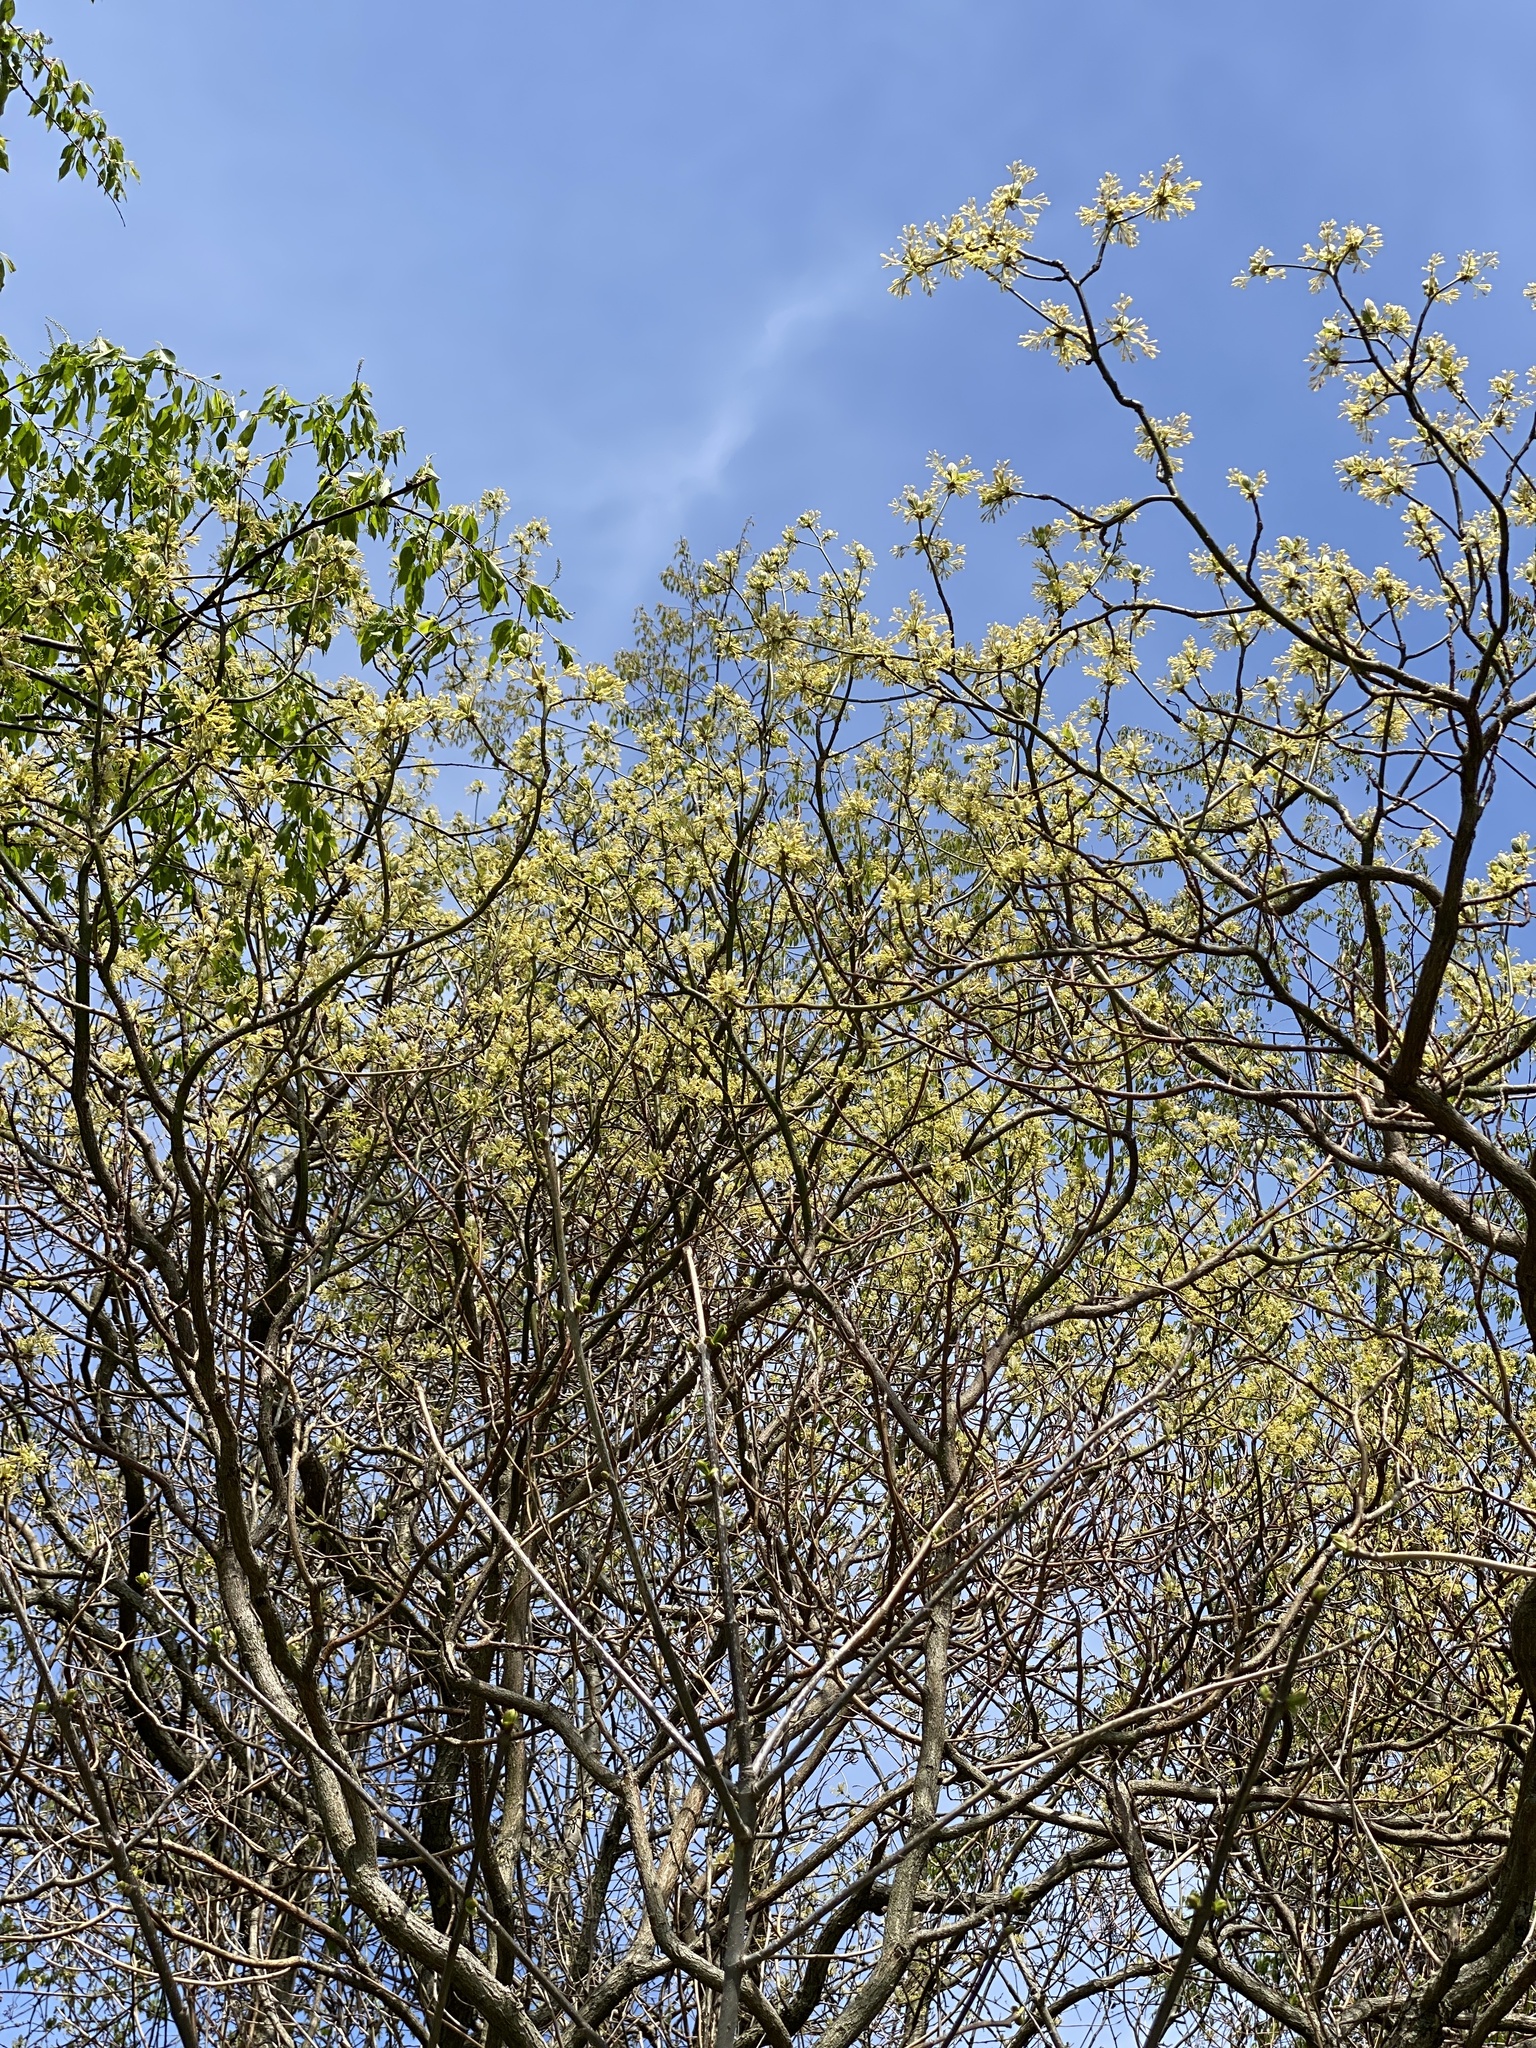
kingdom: Plantae
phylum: Tracheophyta
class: Magnoliopsida
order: Laurales
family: Lauraceae
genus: Sassafras
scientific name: Sassafras albidum
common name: Sassafras
